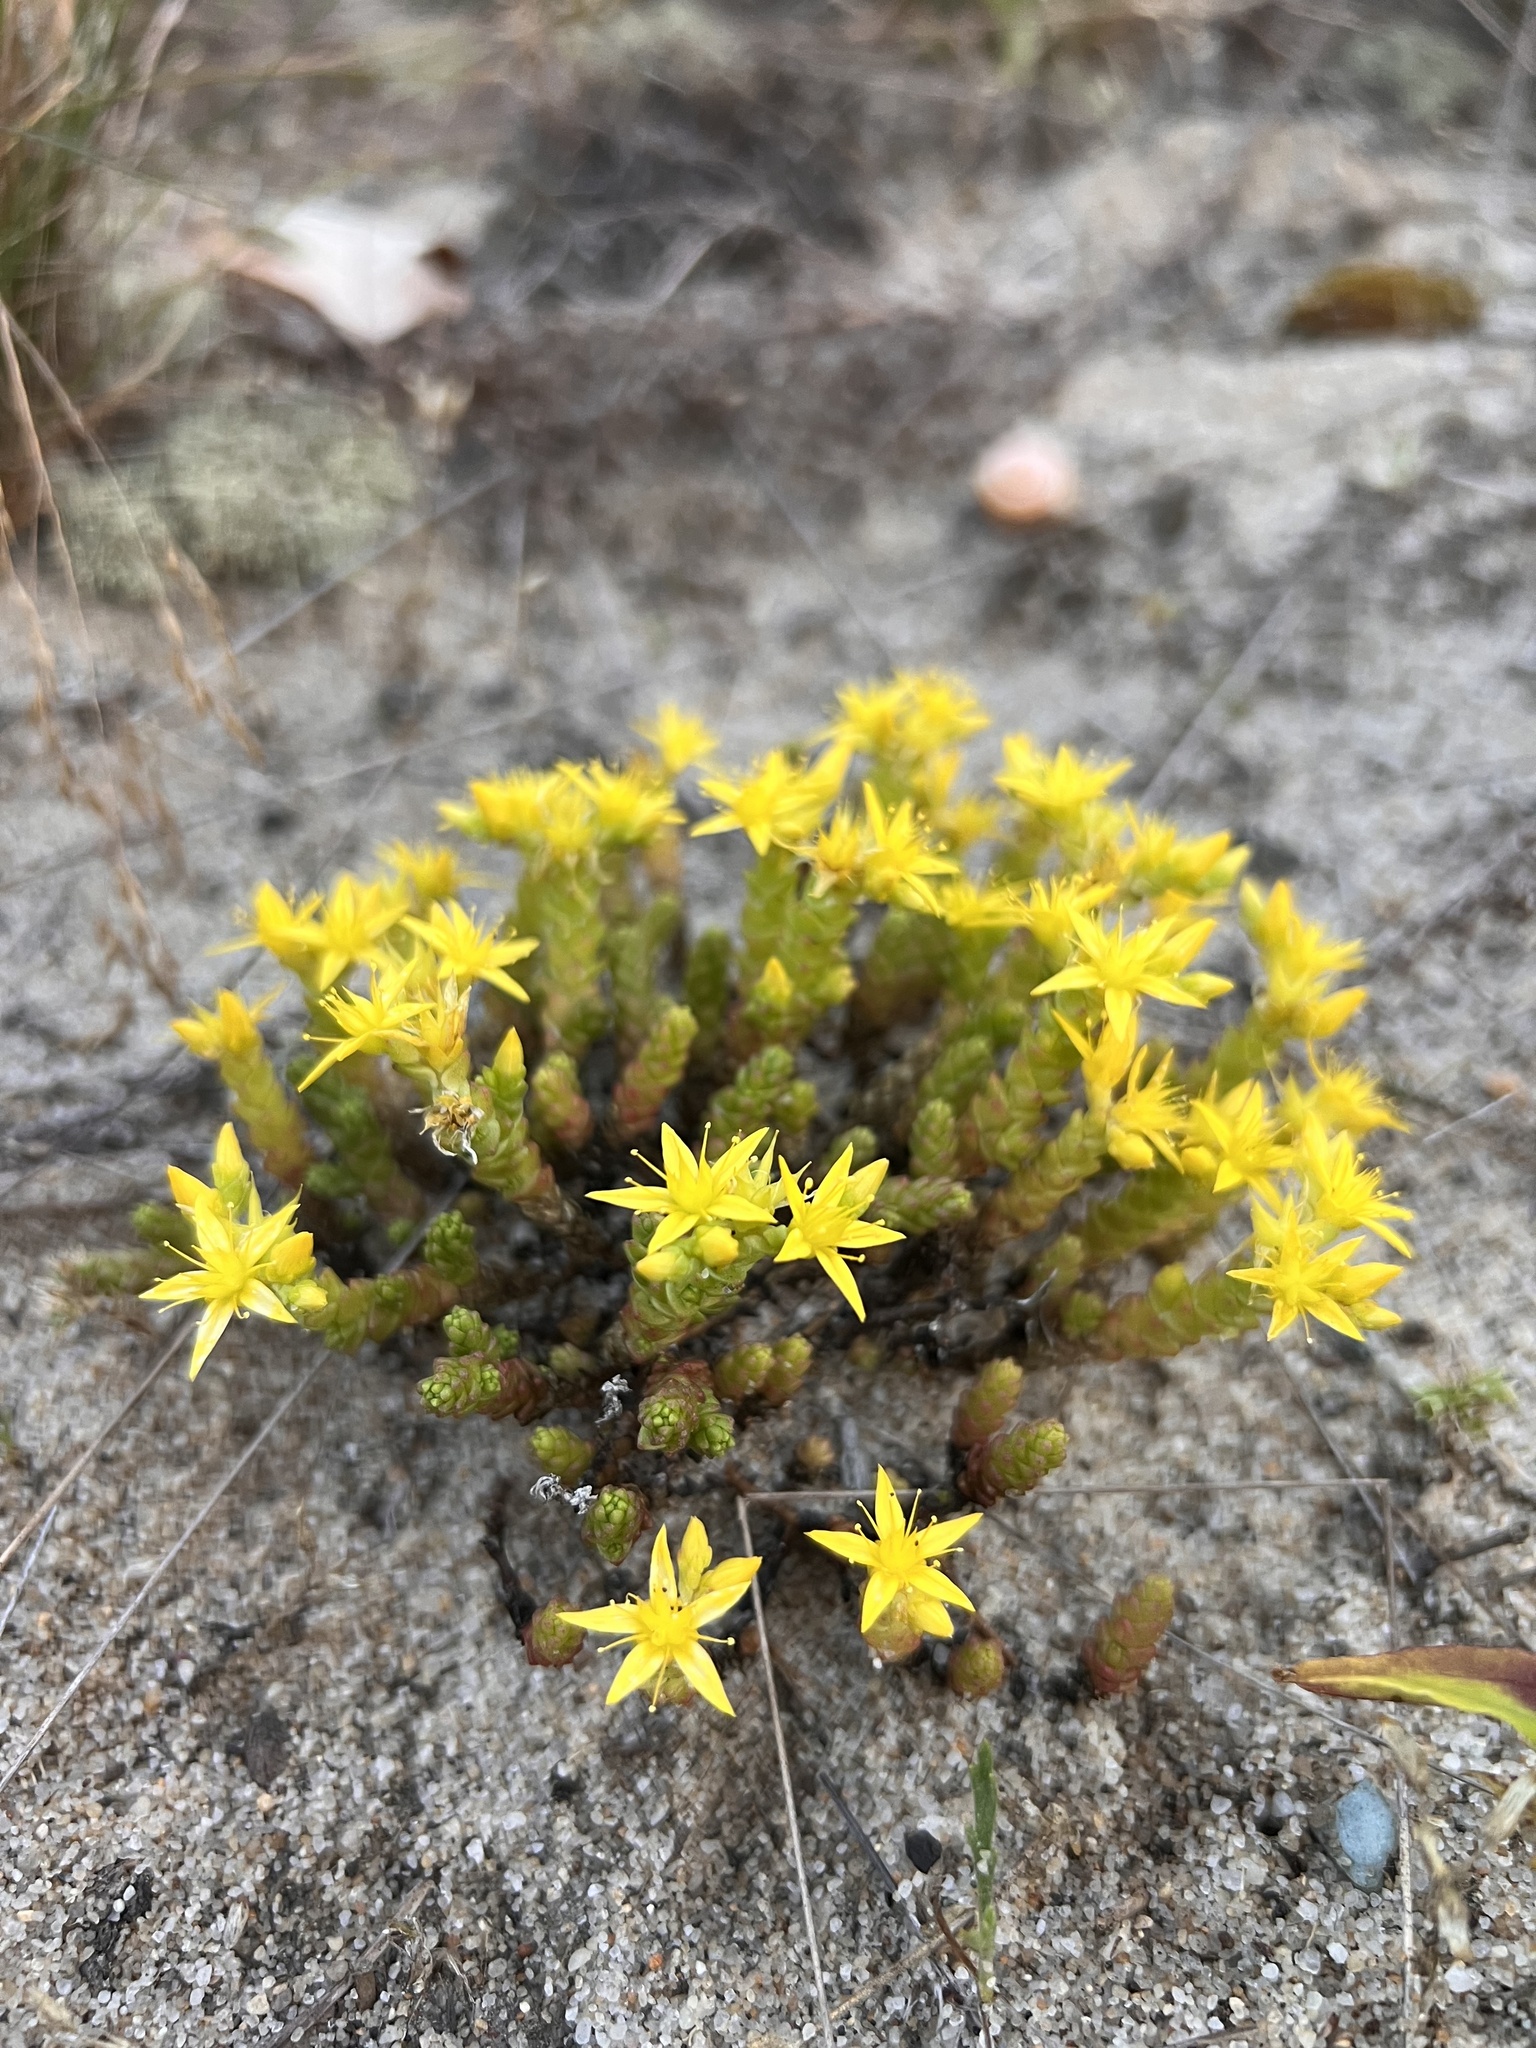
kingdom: Plantae
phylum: Tracheophyta
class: Magnoliopsida
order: Saxifragales
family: Crassulaceae
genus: Sedum
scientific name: Sedum acre
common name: Biting stonecrop
